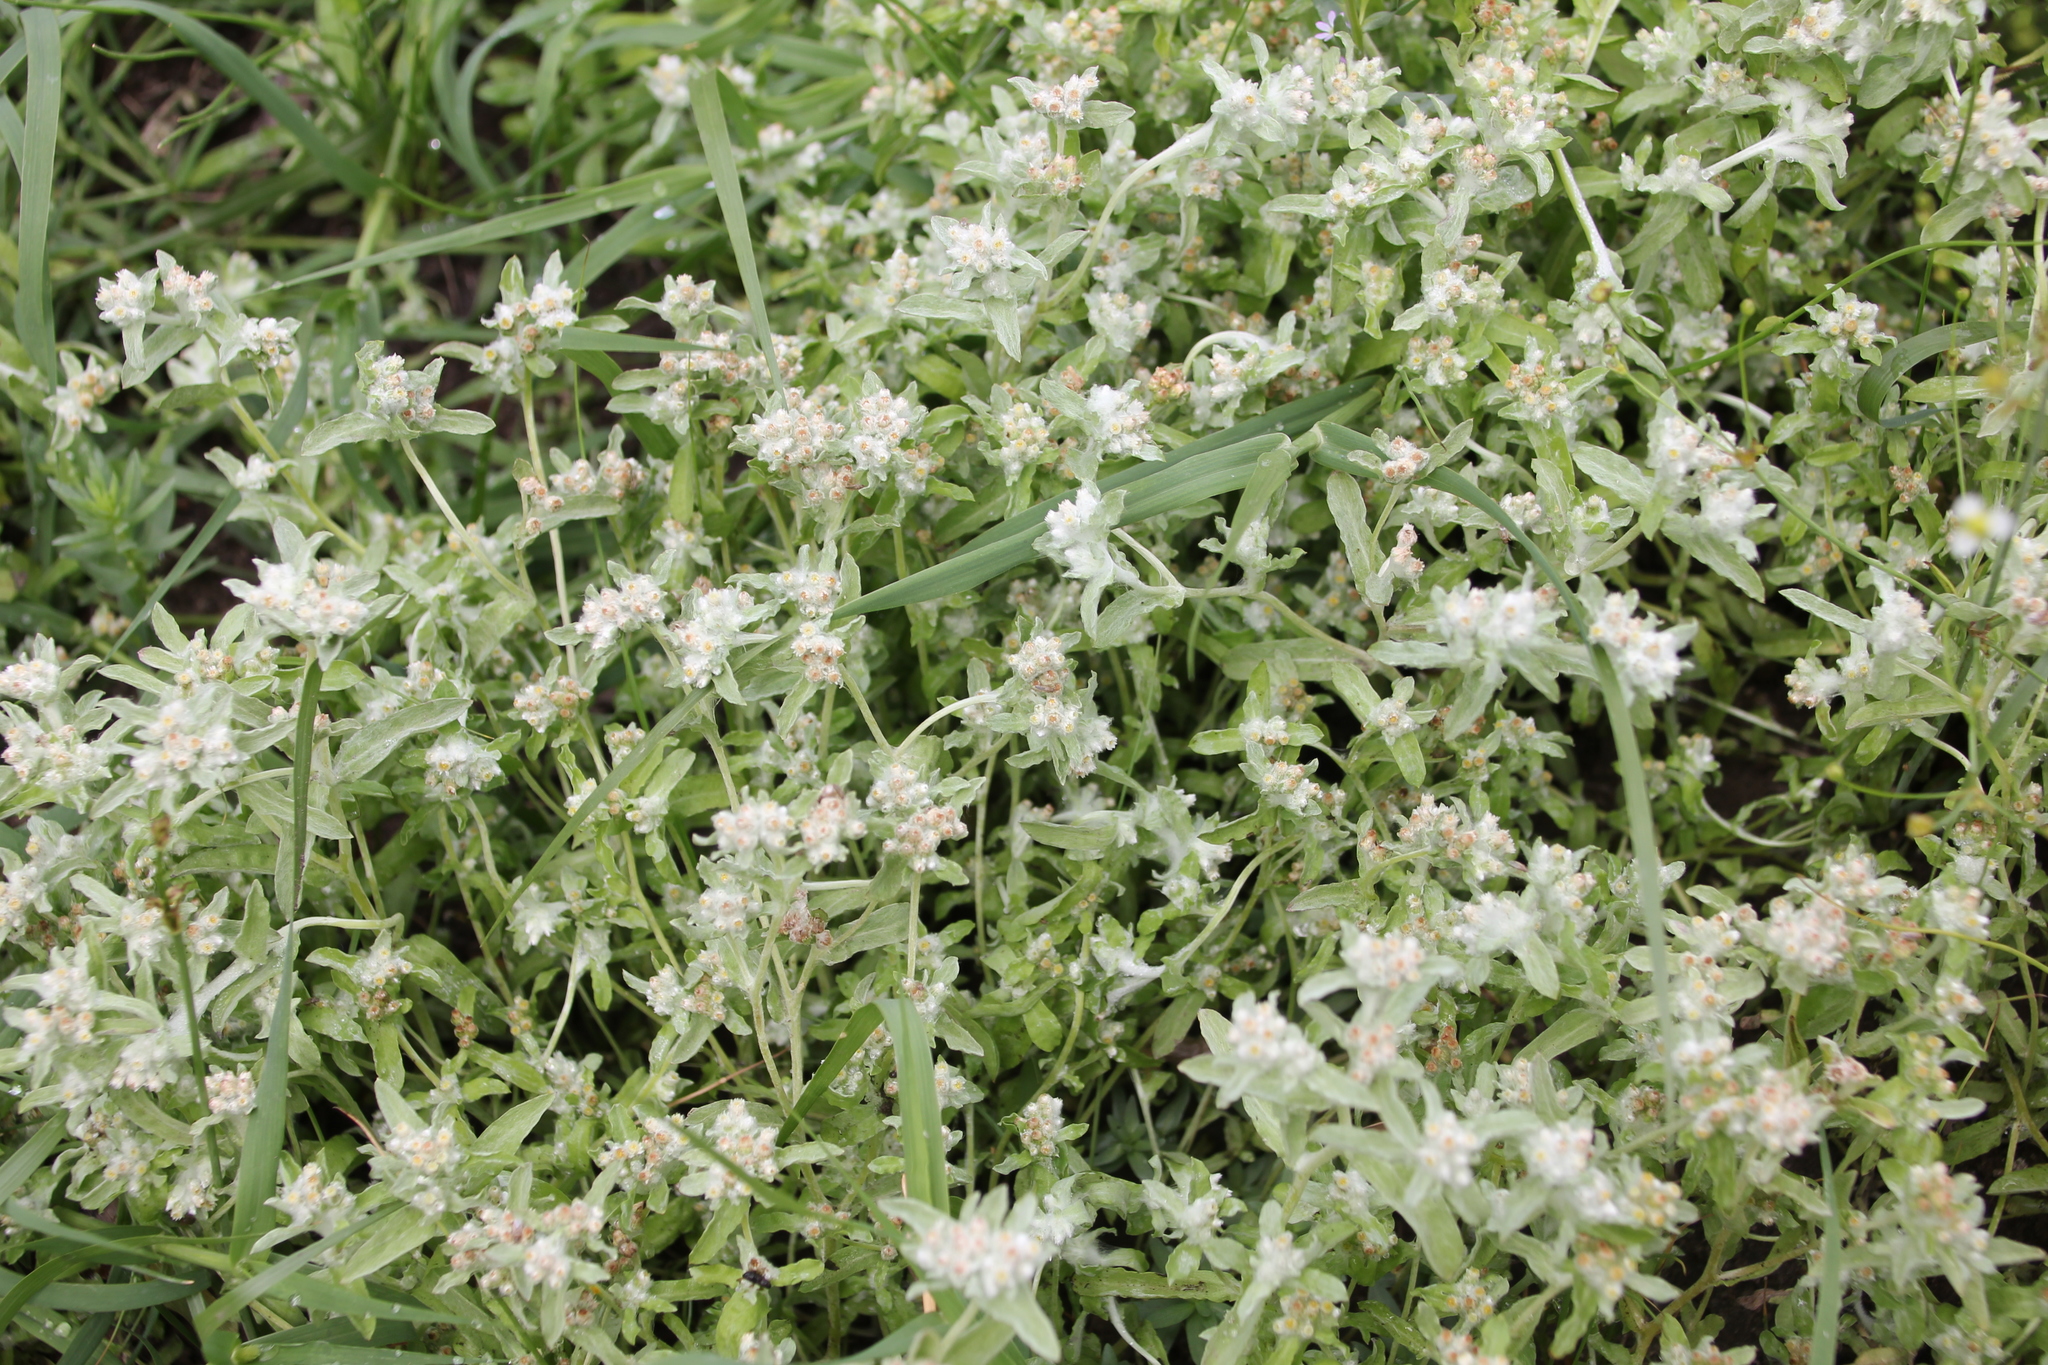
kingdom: Plantae
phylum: Tracheophyta
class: Magnoliopsida
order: Asterales
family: Asteraceae
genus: Gnaphalium
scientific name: Gnaphalium palustre
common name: Western marsh cudweed
